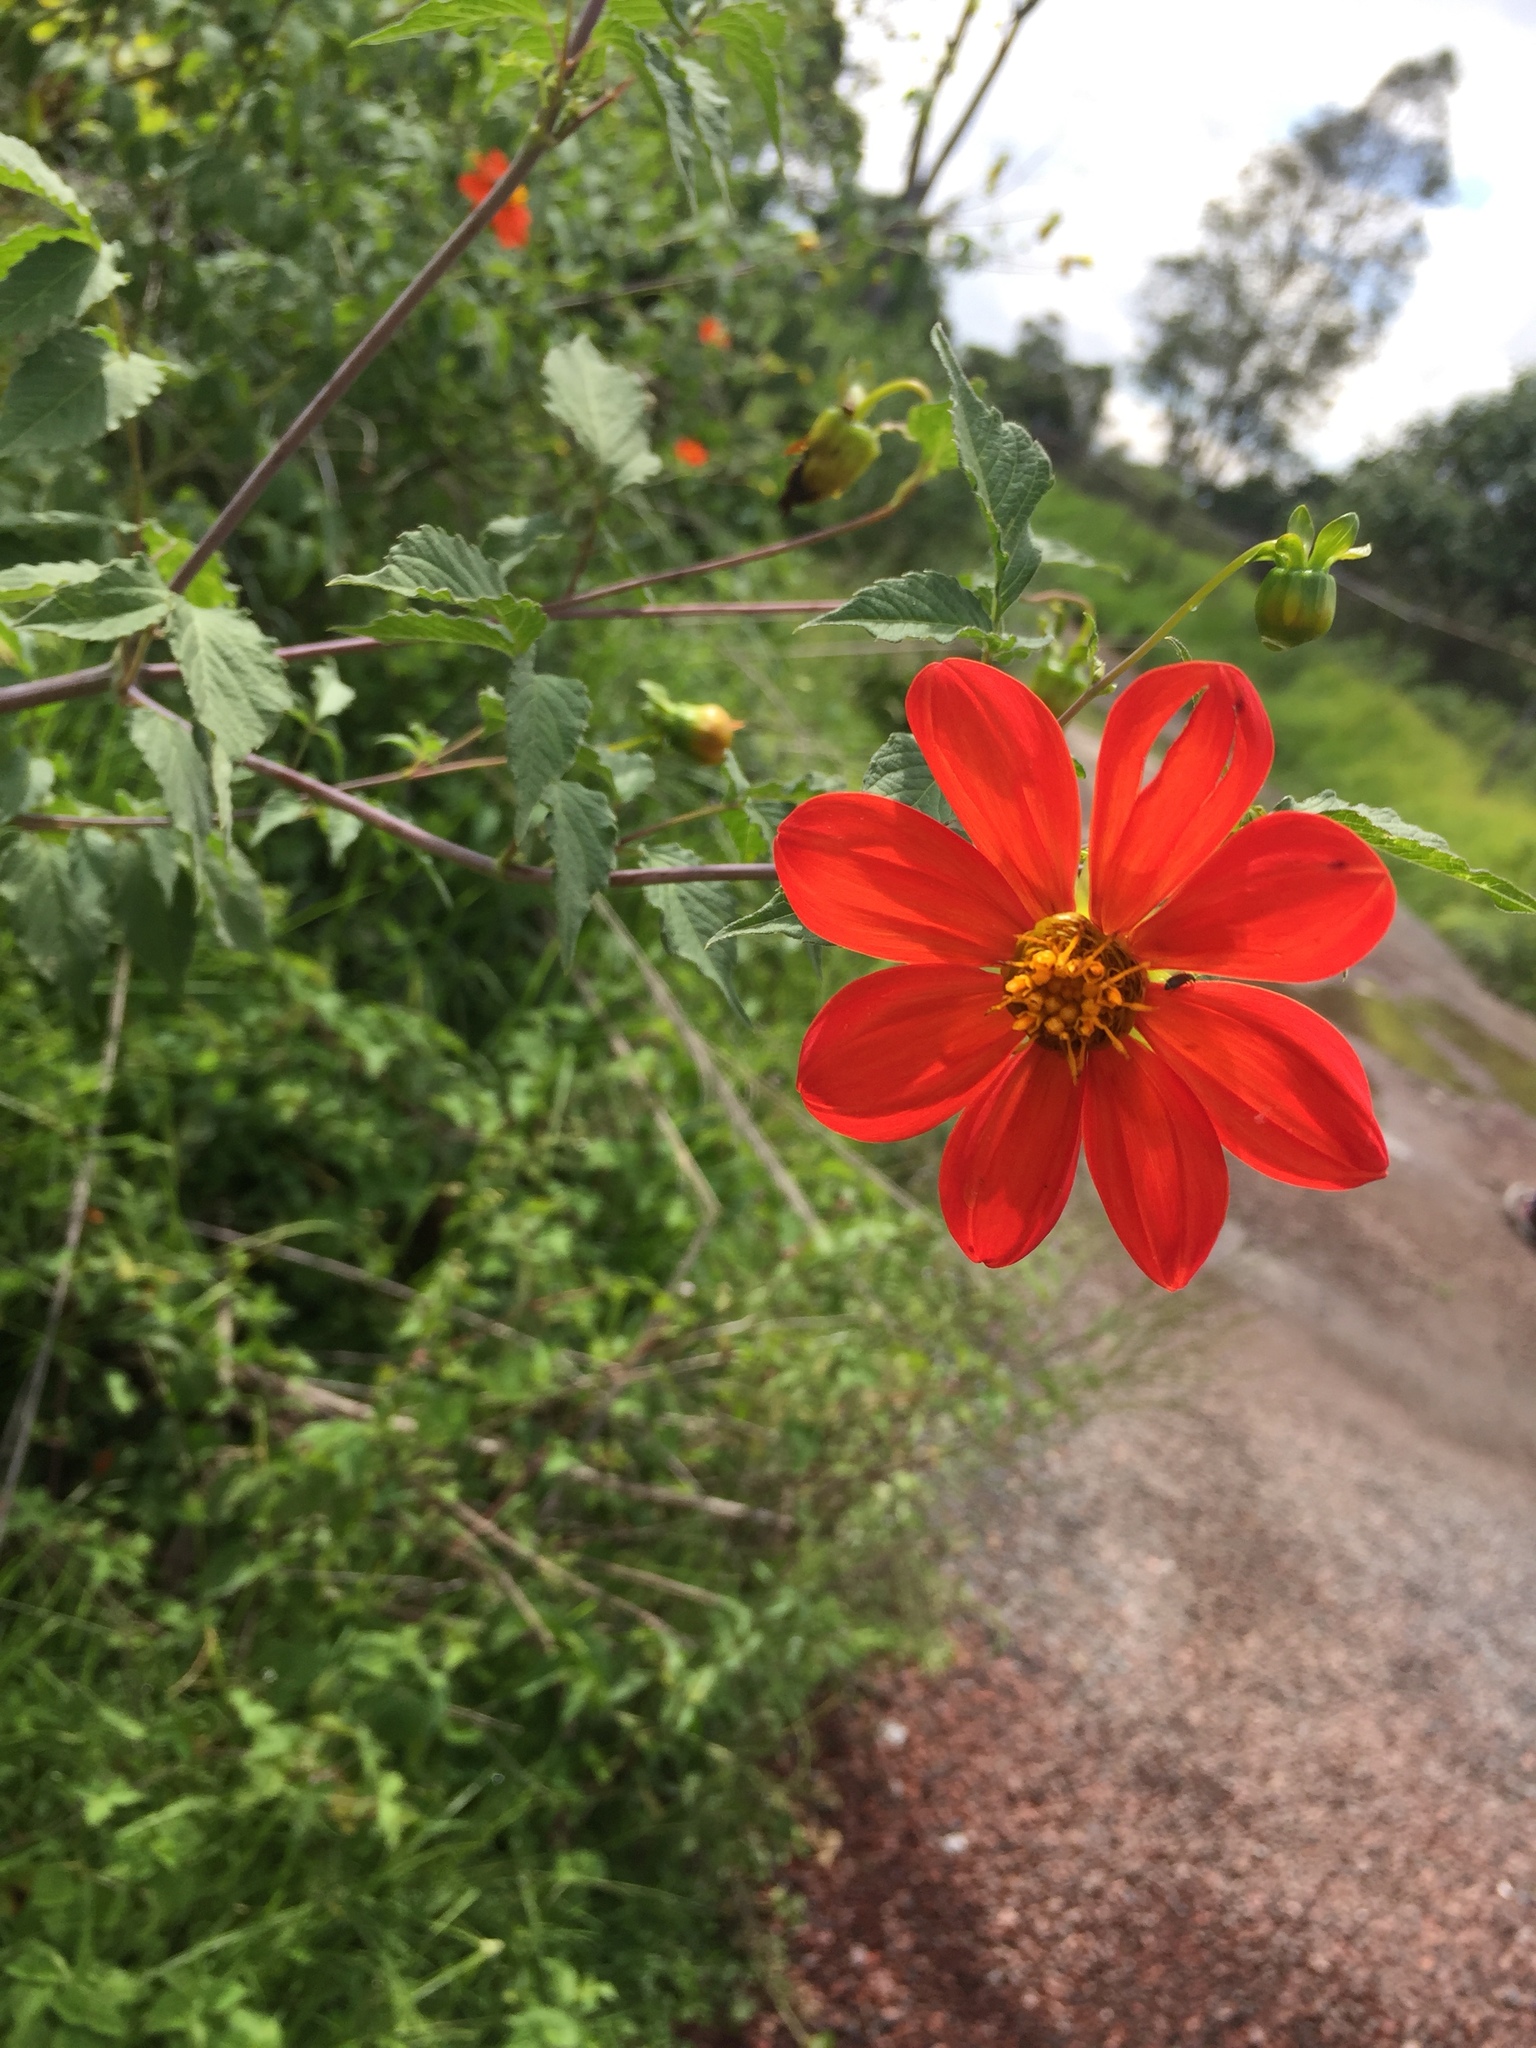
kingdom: Plantae
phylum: Tracheophyta
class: Magnoliopsida
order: Asterales
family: Asteraceae
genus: Dahlia
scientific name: Dahlia coccinea
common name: Red dahlia
